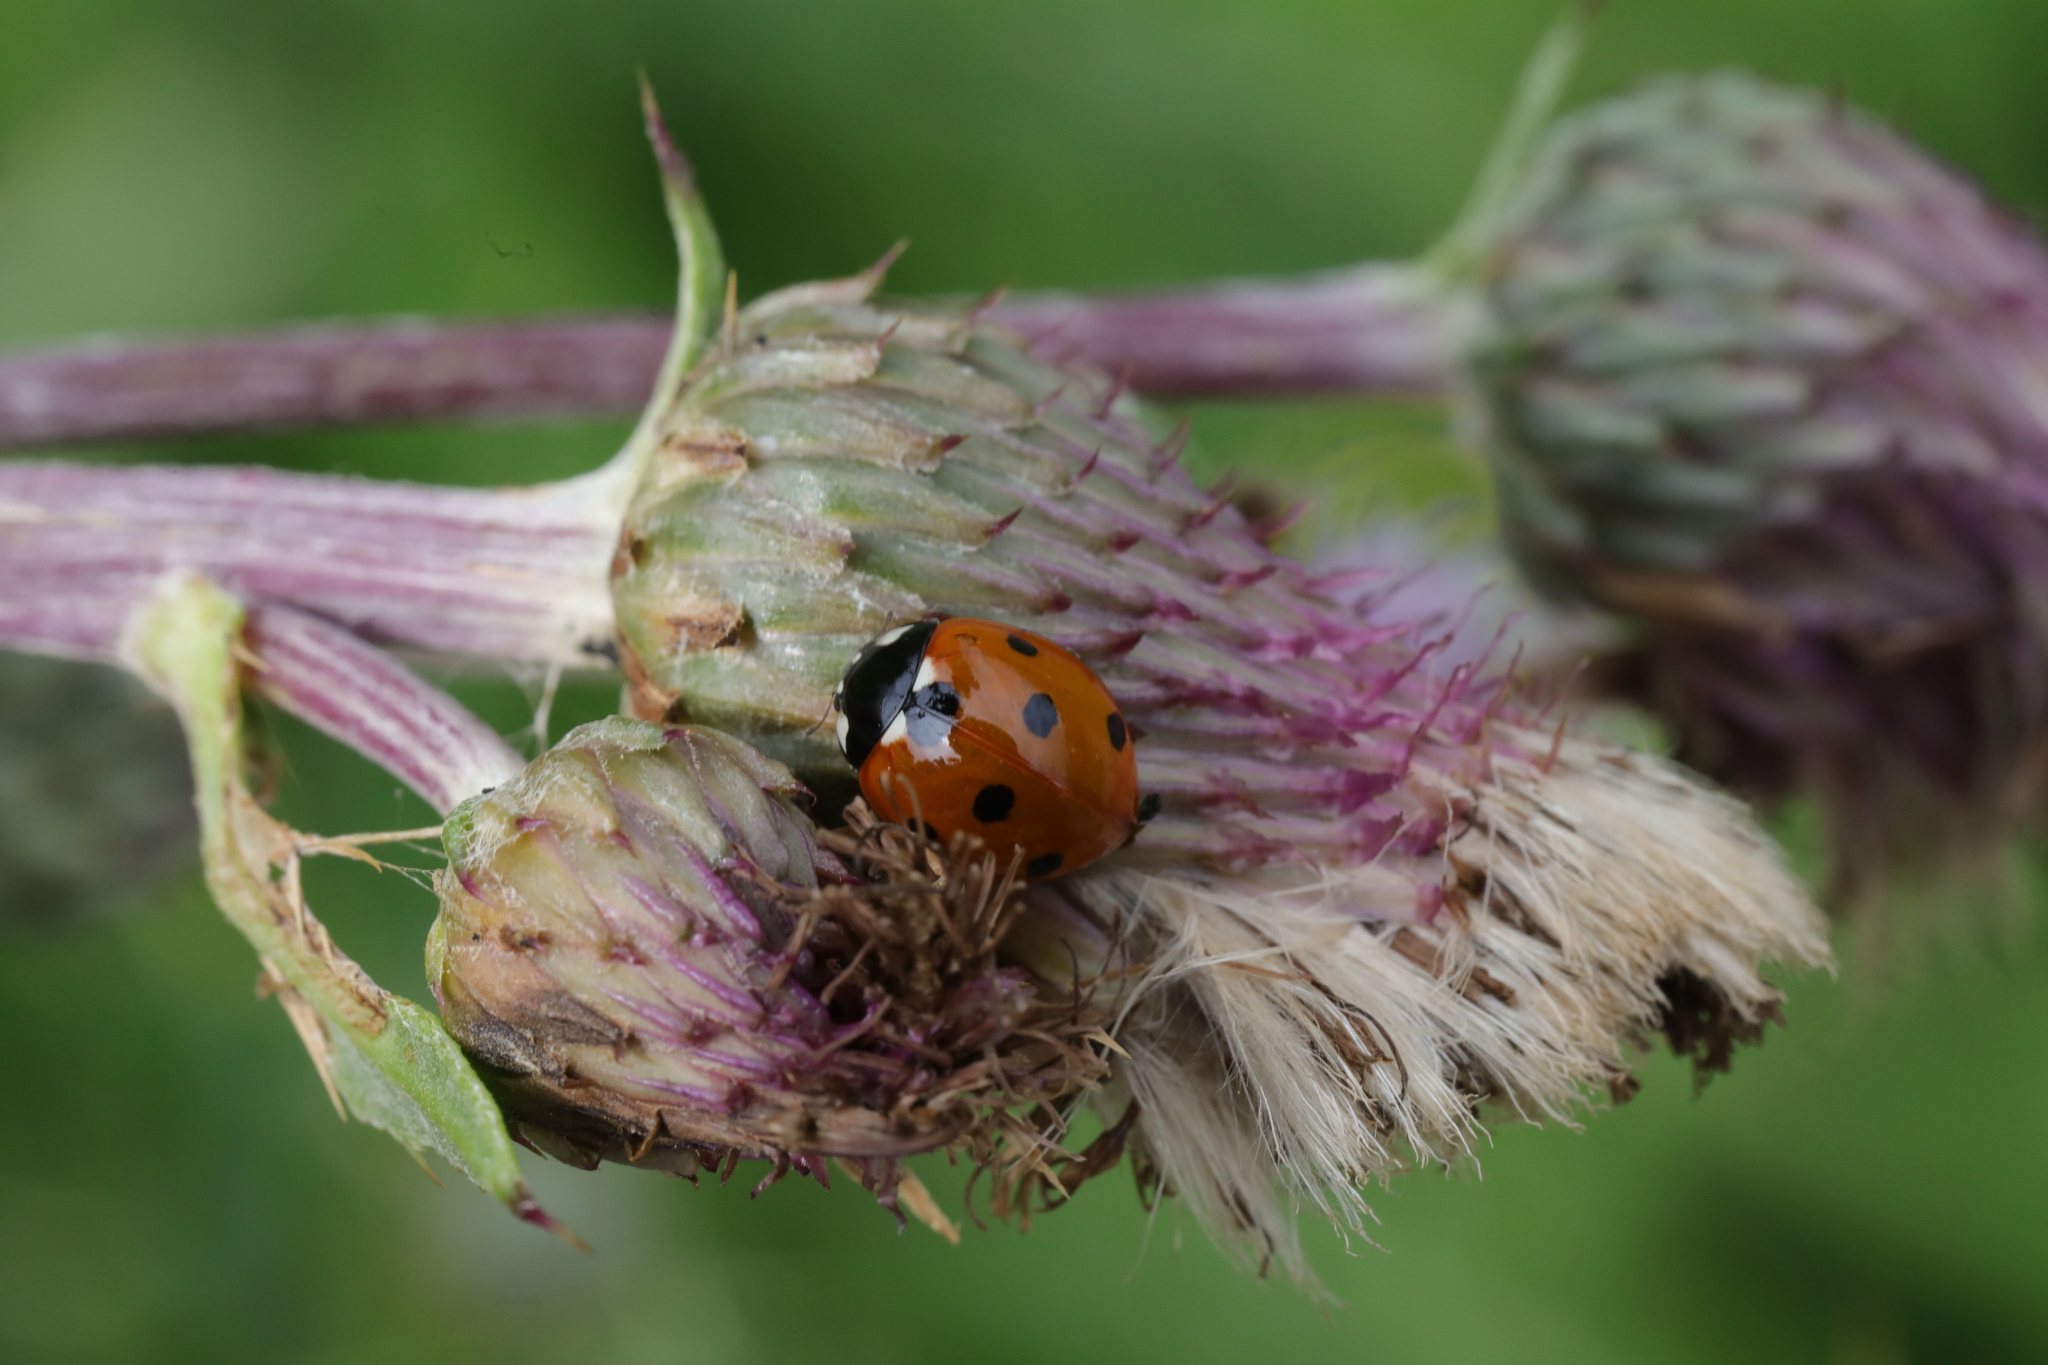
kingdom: Animalia
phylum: Arthropoda
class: Insecta
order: Coleoptera
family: Coccinellidae
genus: Coccinella
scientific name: Coccinella septempunctata
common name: Sevenspotted lady beetle
